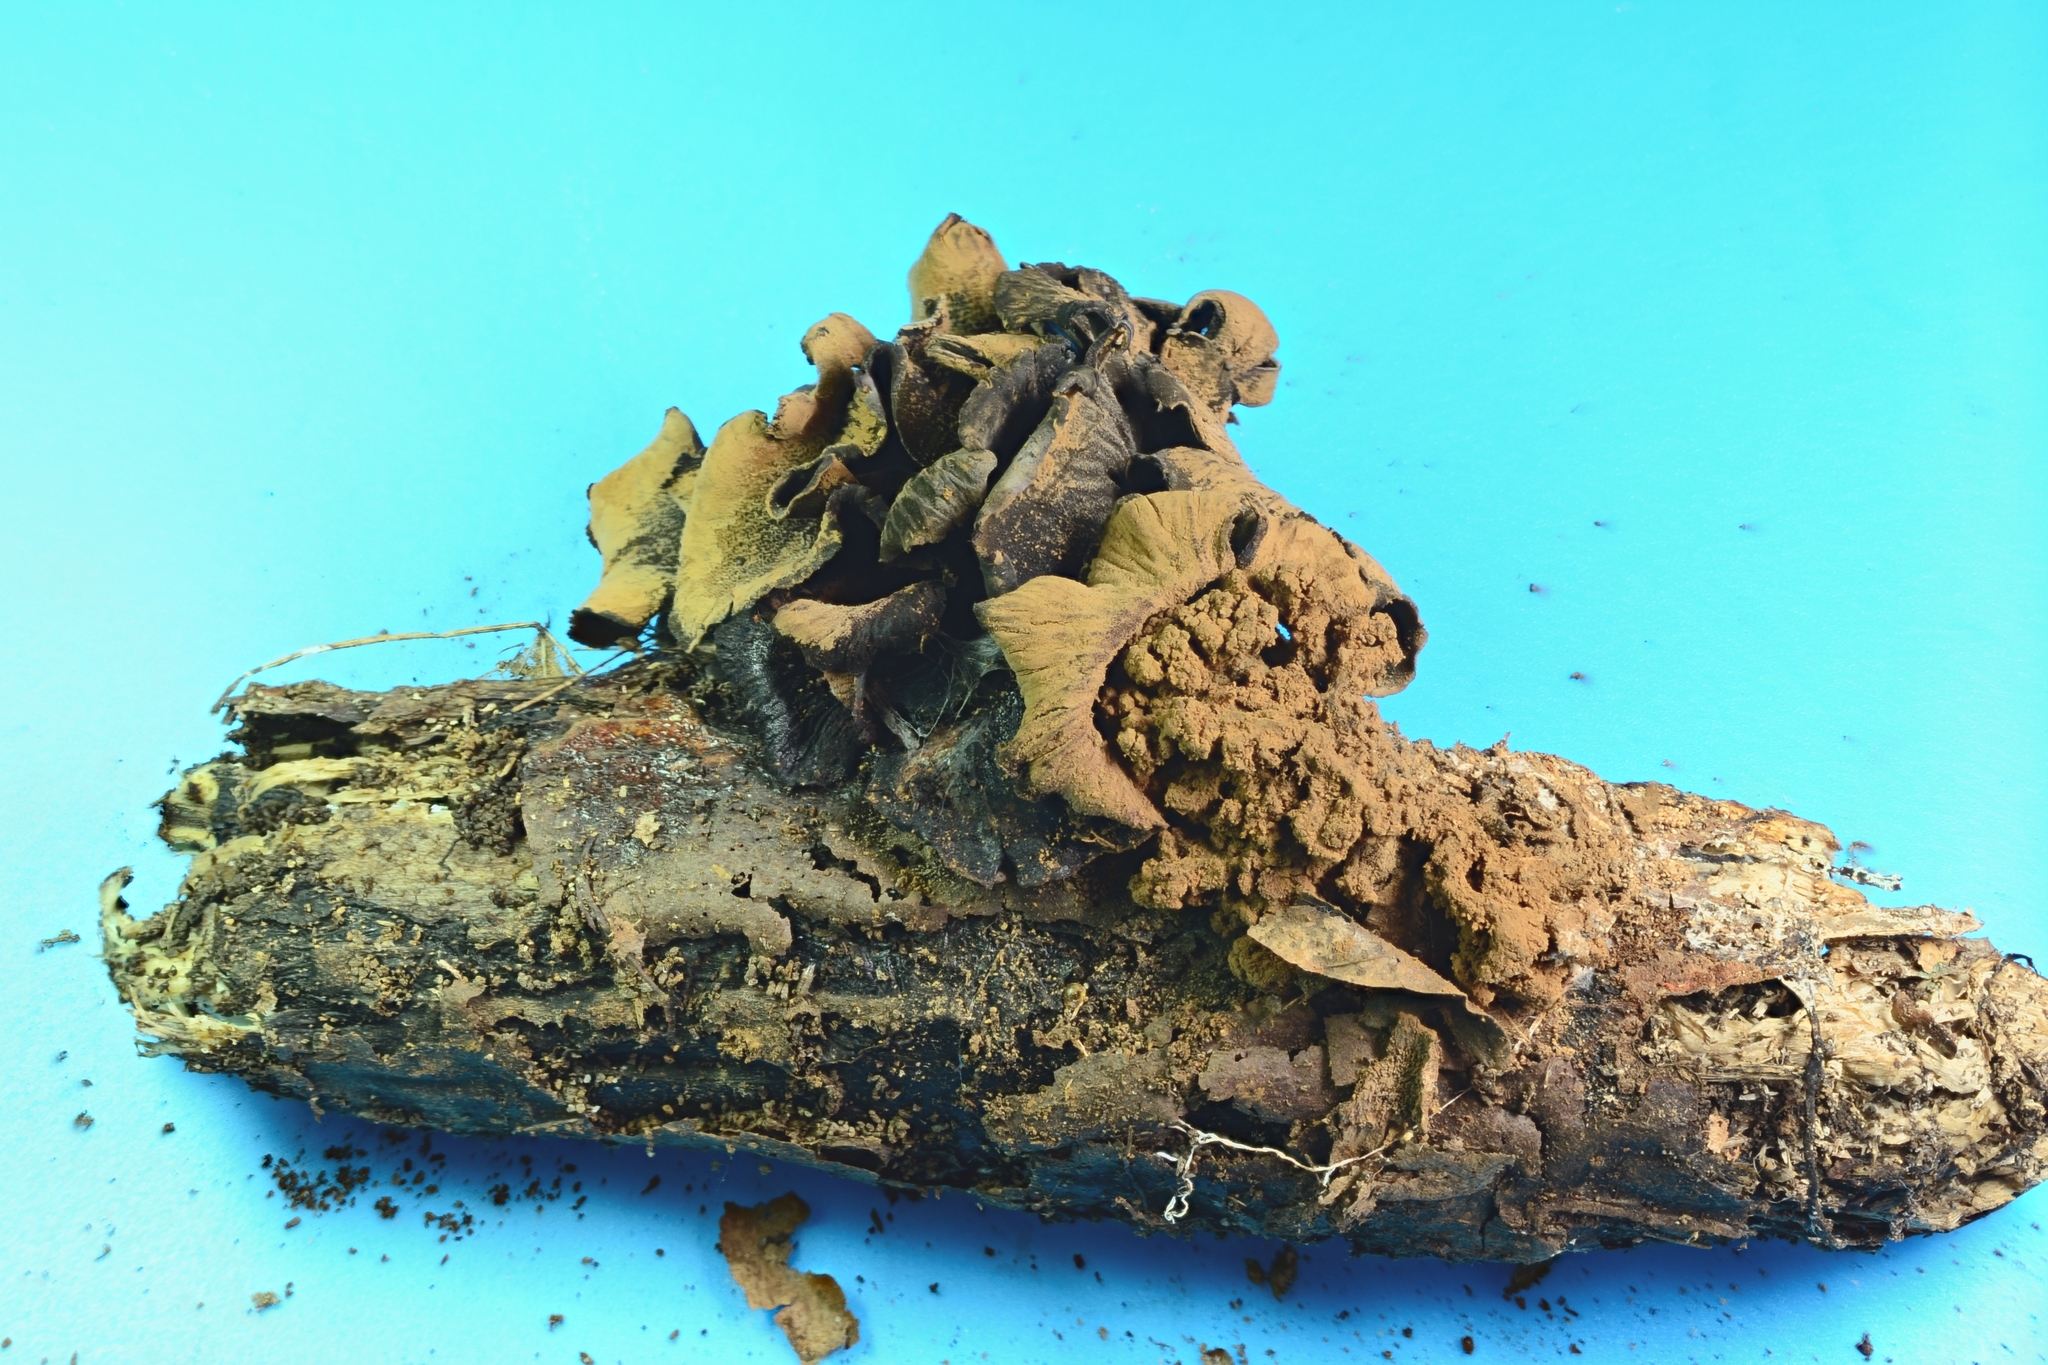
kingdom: Fungi
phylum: Ascomycota
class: Leotiomycetes
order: Helotiales
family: Cordieritidaceae
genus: Diplocarpa
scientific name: Diplocarpa irregularis
